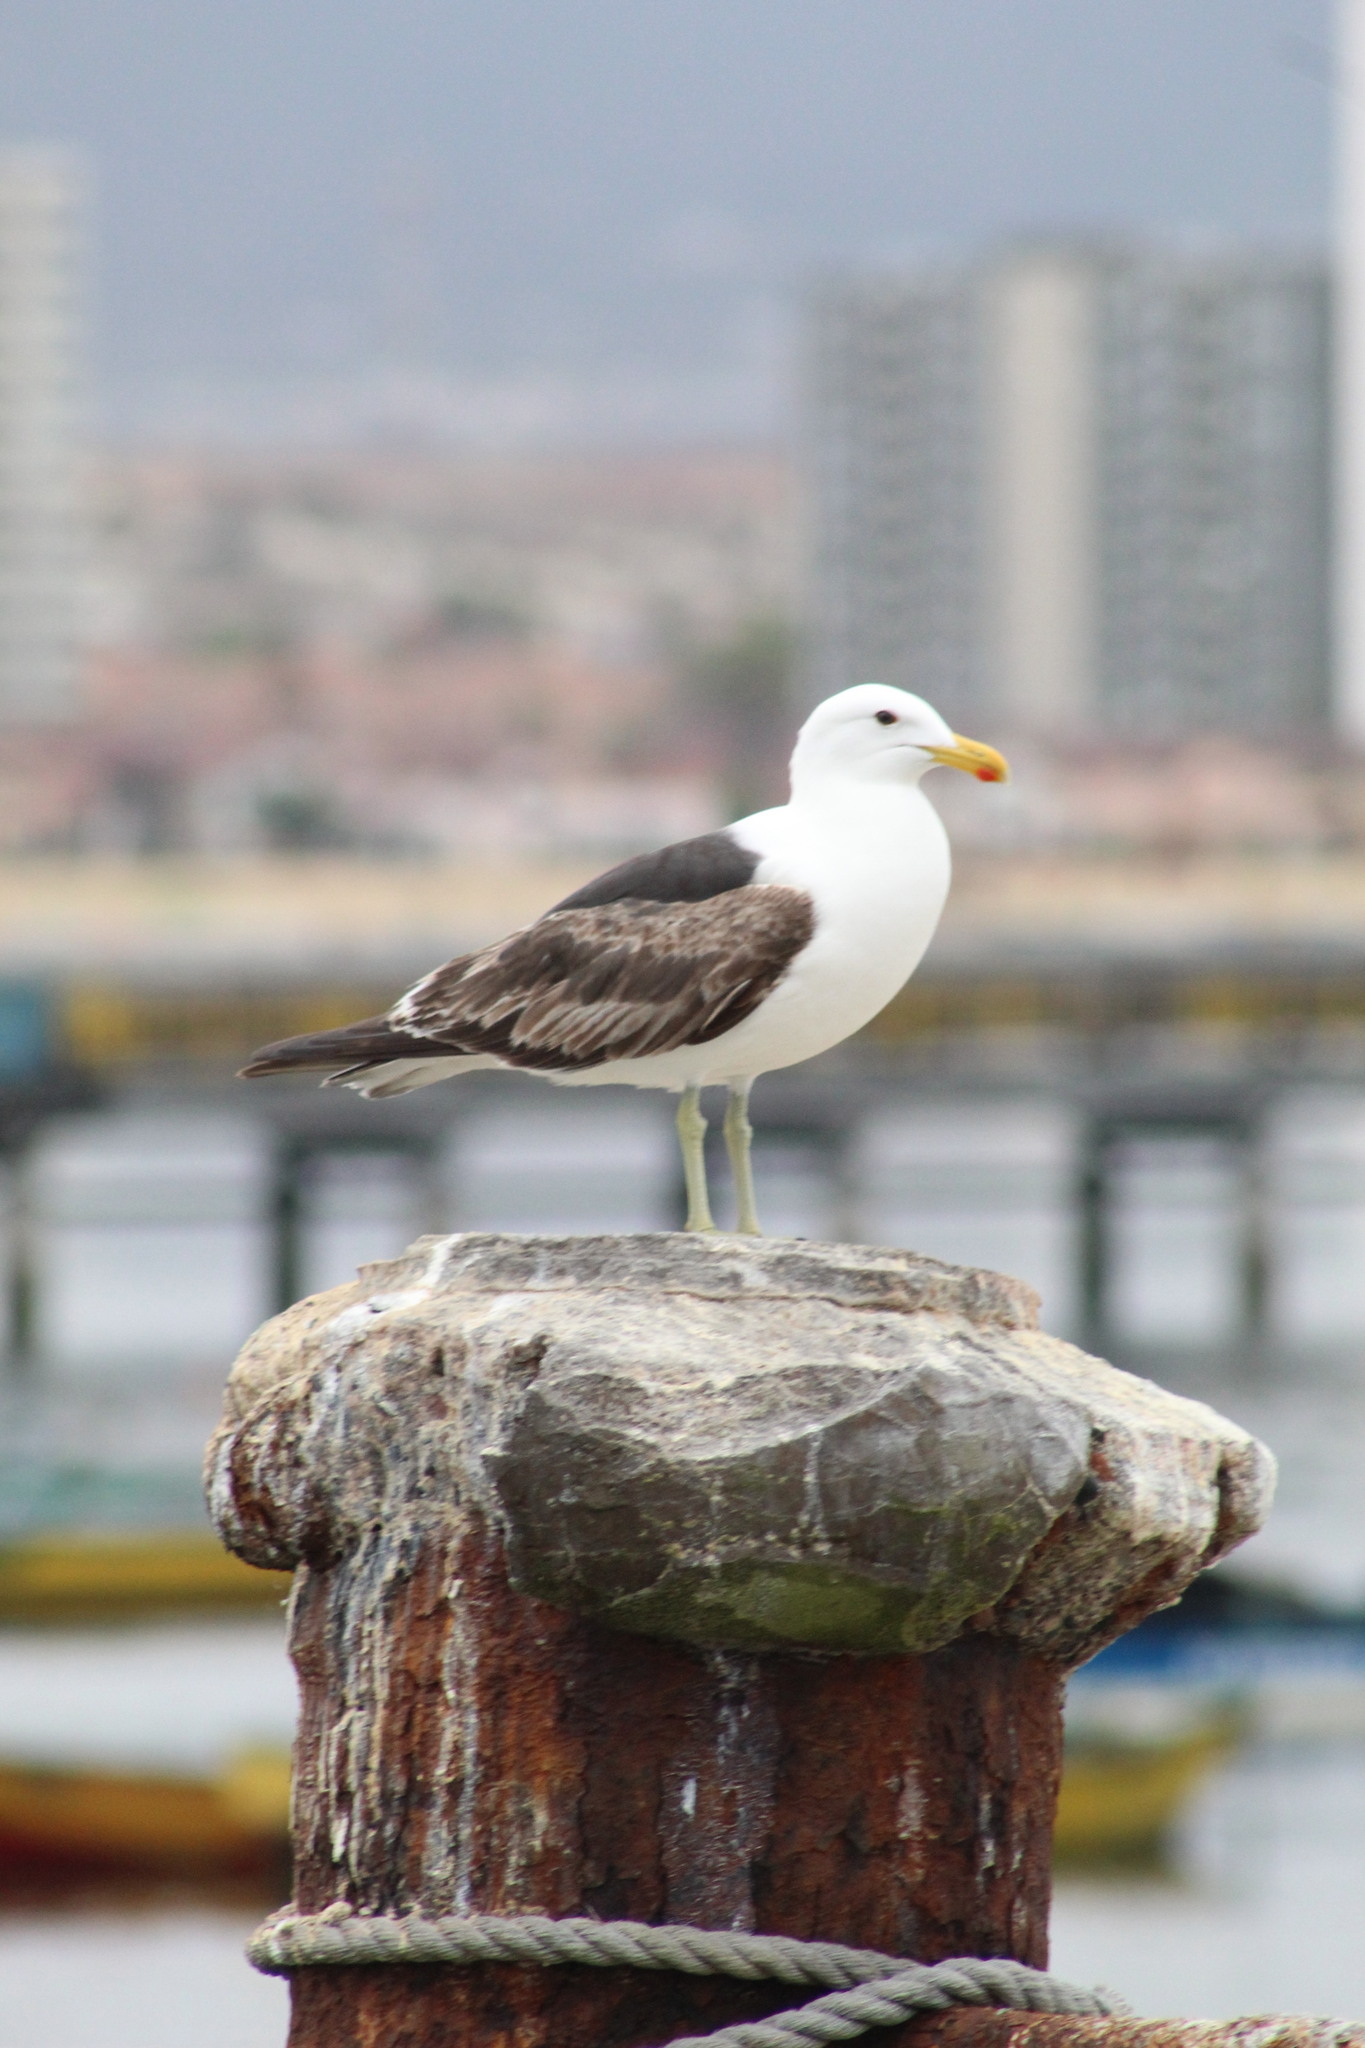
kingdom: Animalia
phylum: Chordata
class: Aves
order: Charadriiformes
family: Laridae
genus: Larus
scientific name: Larus dominicanus
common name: Kelp gull
